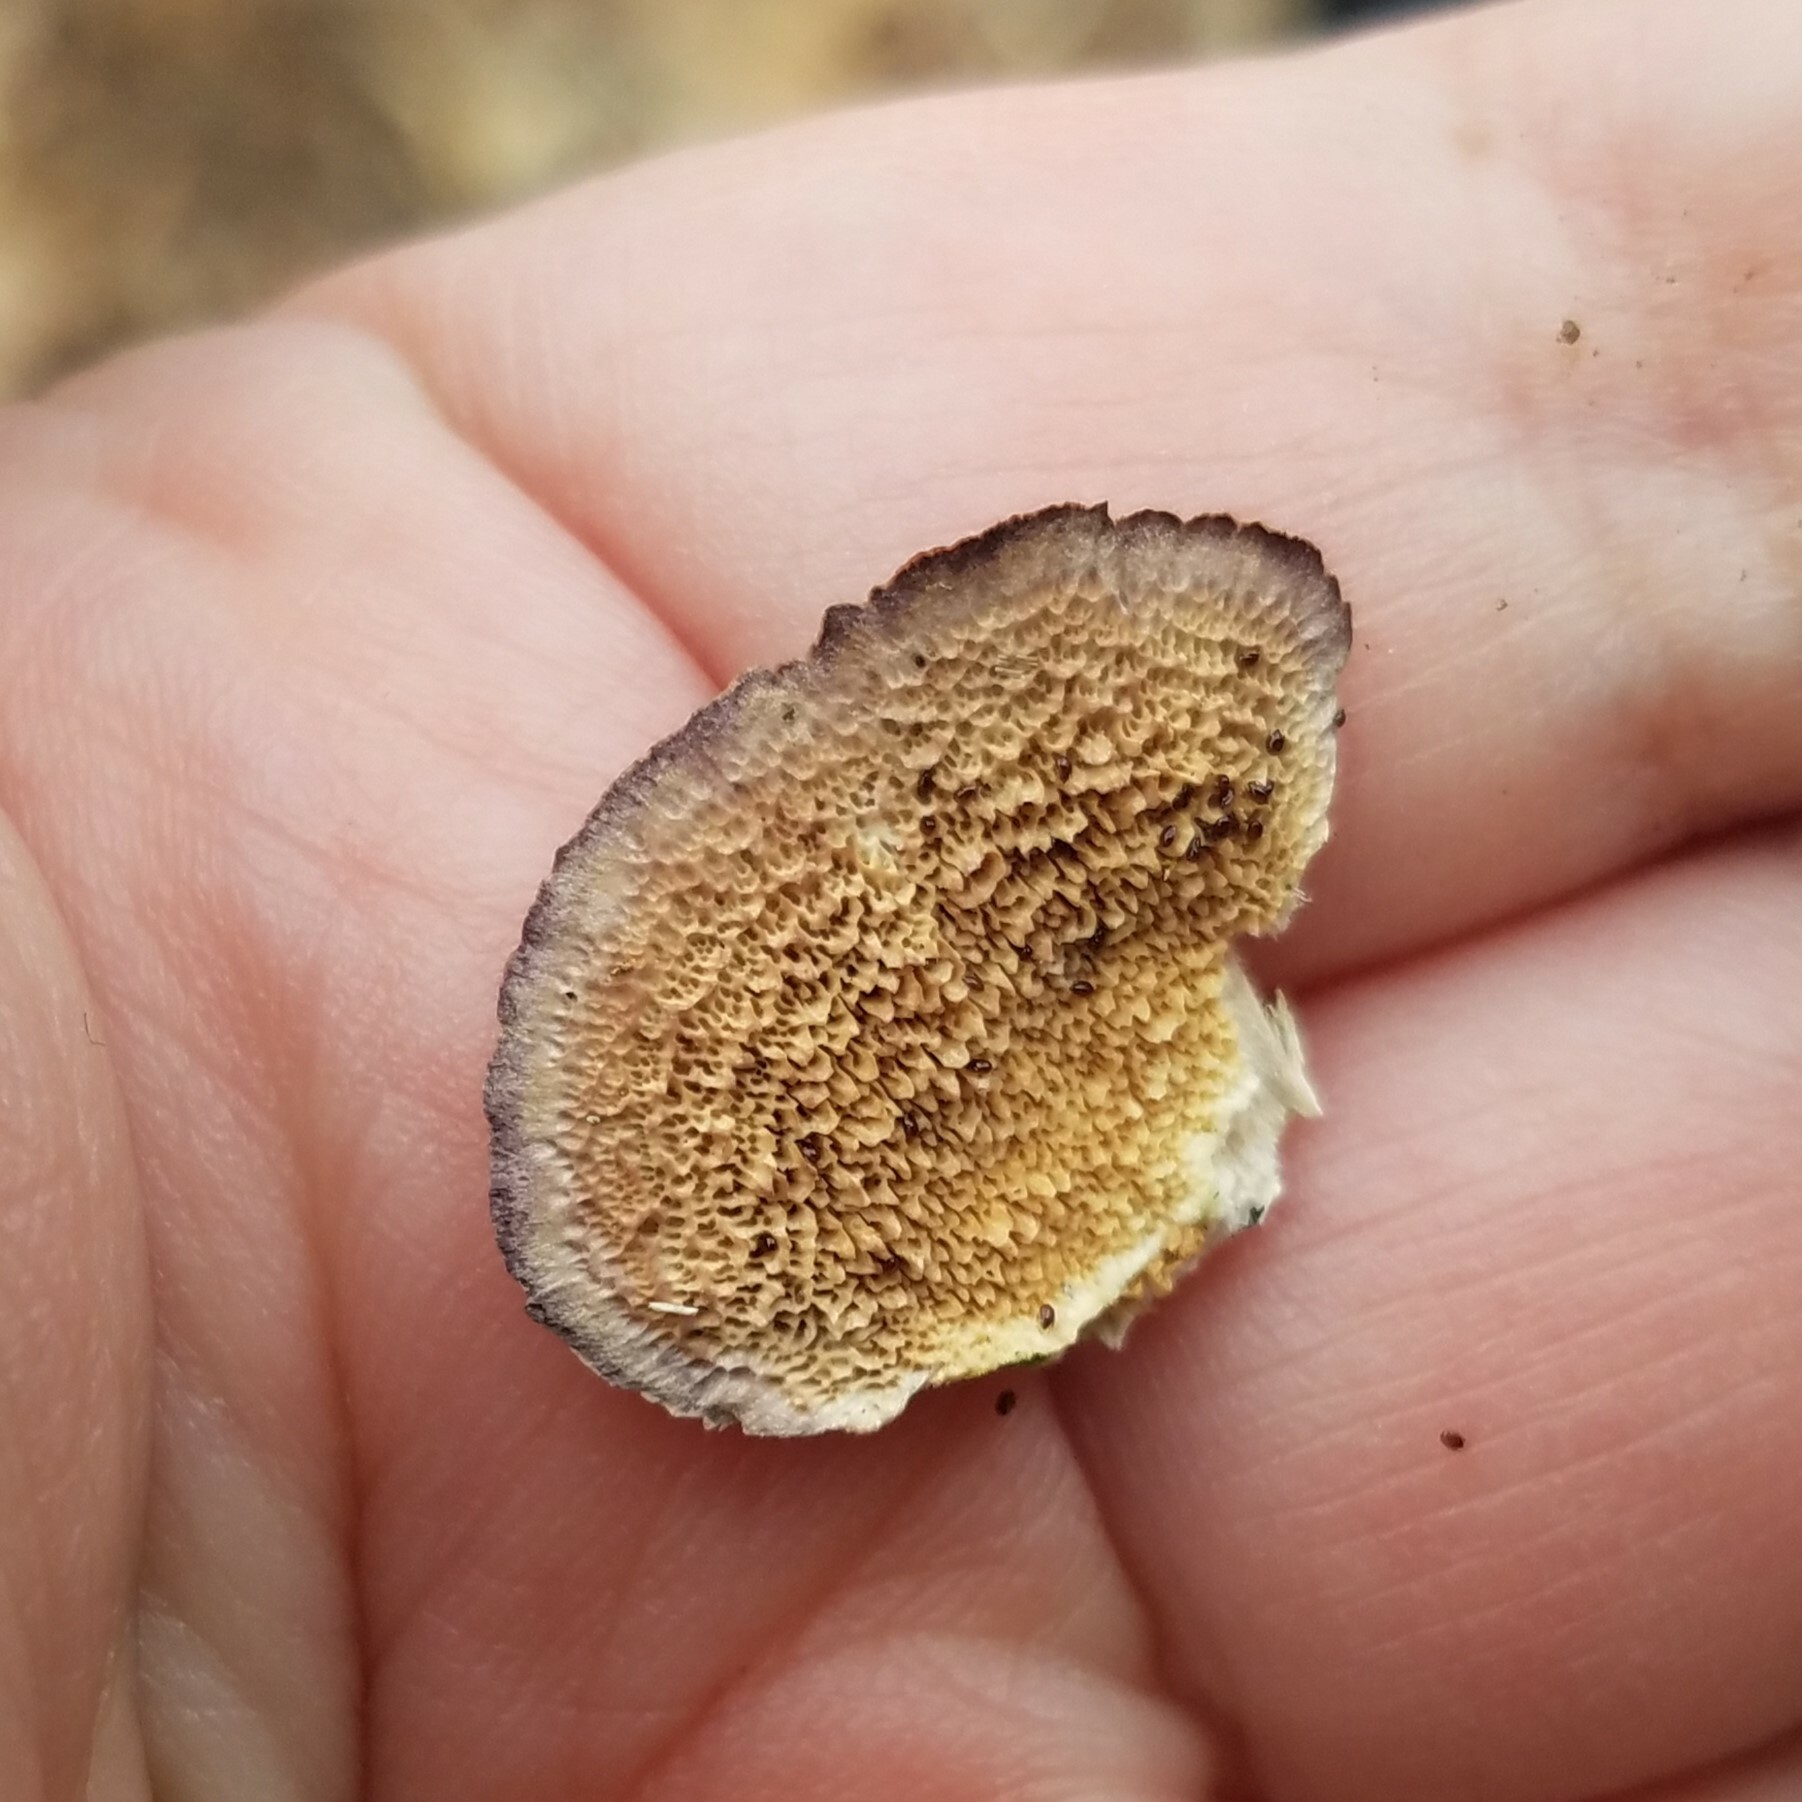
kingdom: Fungi
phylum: Basidiomycota
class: Agaricomycetes
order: Hymenochaetales
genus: Trichaptum
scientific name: Trichaptum biforme
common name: Violet-toothed polypore
